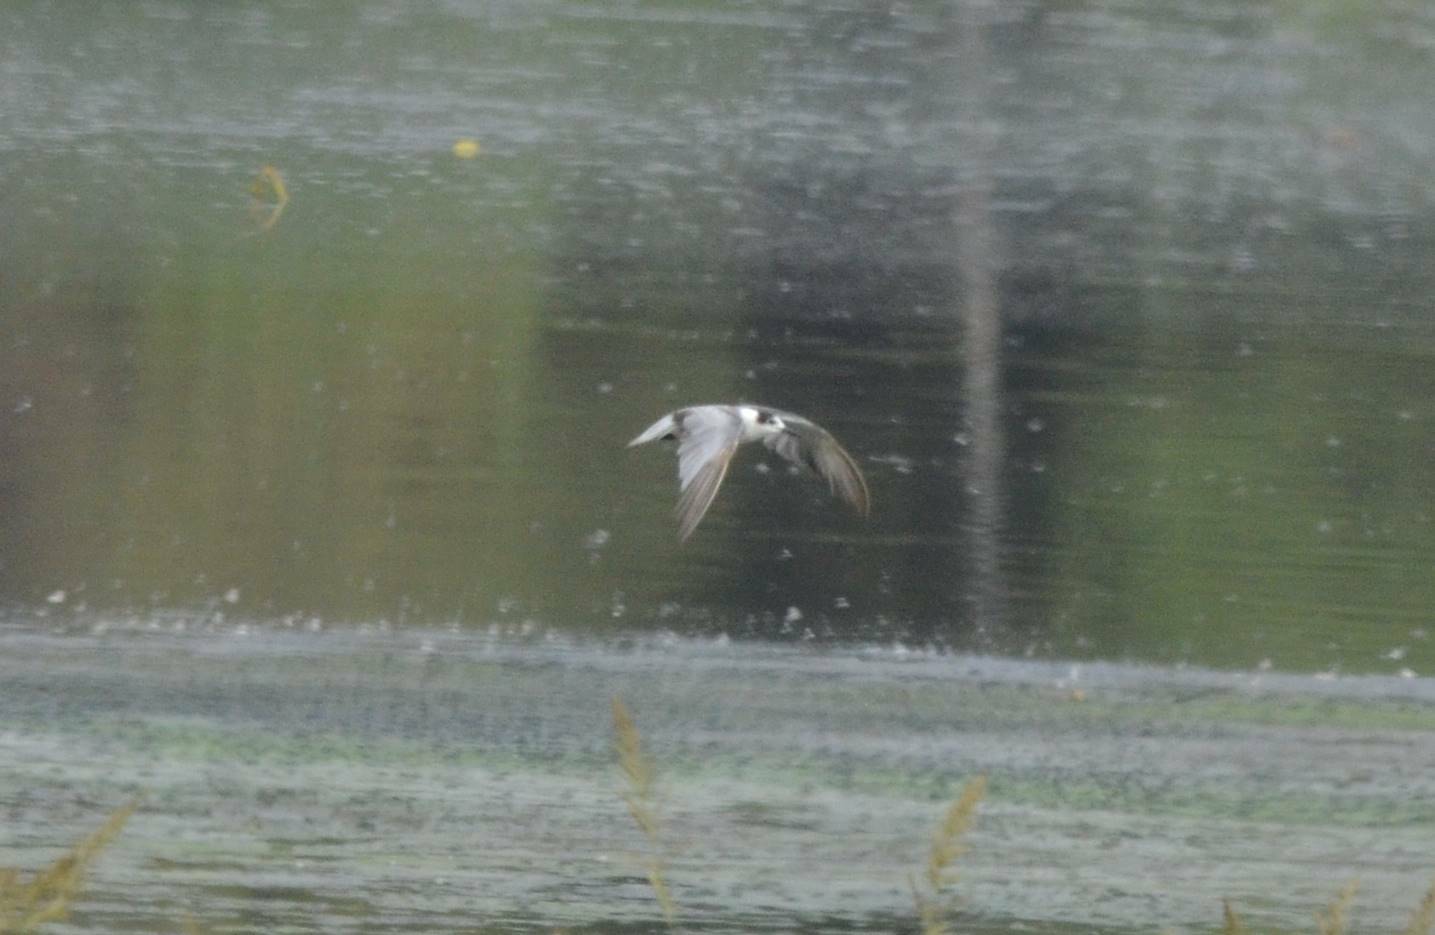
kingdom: Animalia
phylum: Chordata
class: Aves
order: Charadriiformes
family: Laridae
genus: Chlidonias
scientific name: Chlidonias niger
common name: Black tern
